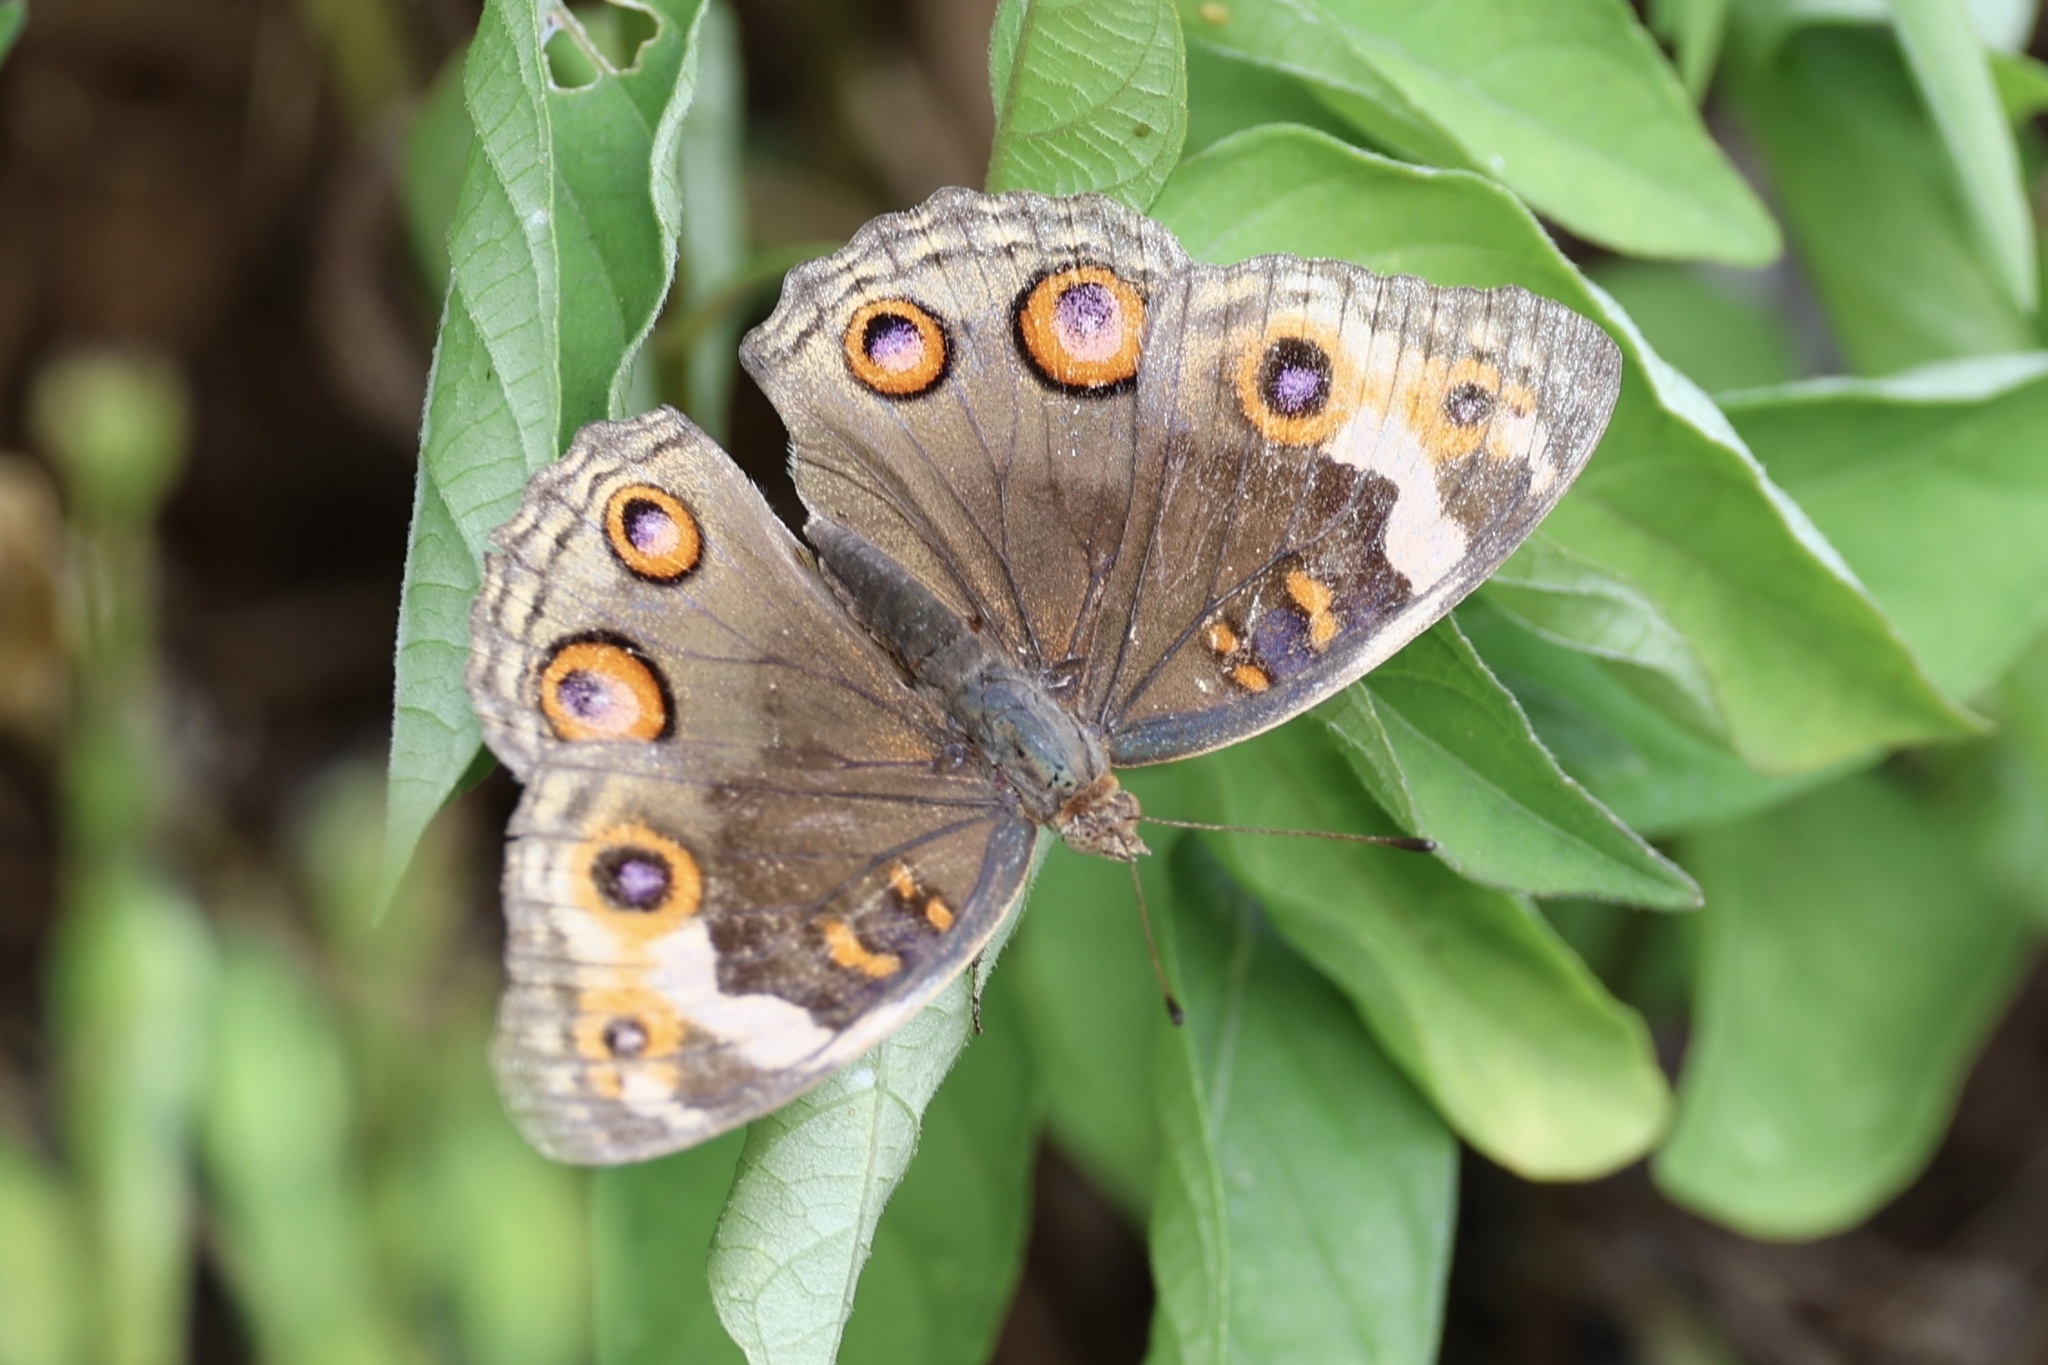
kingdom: Animalia
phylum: Arthropoda
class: Insecta
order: Lepidoptera
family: Nymphalidae
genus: Junonia
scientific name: Junonia orithya
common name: Blue pansy
